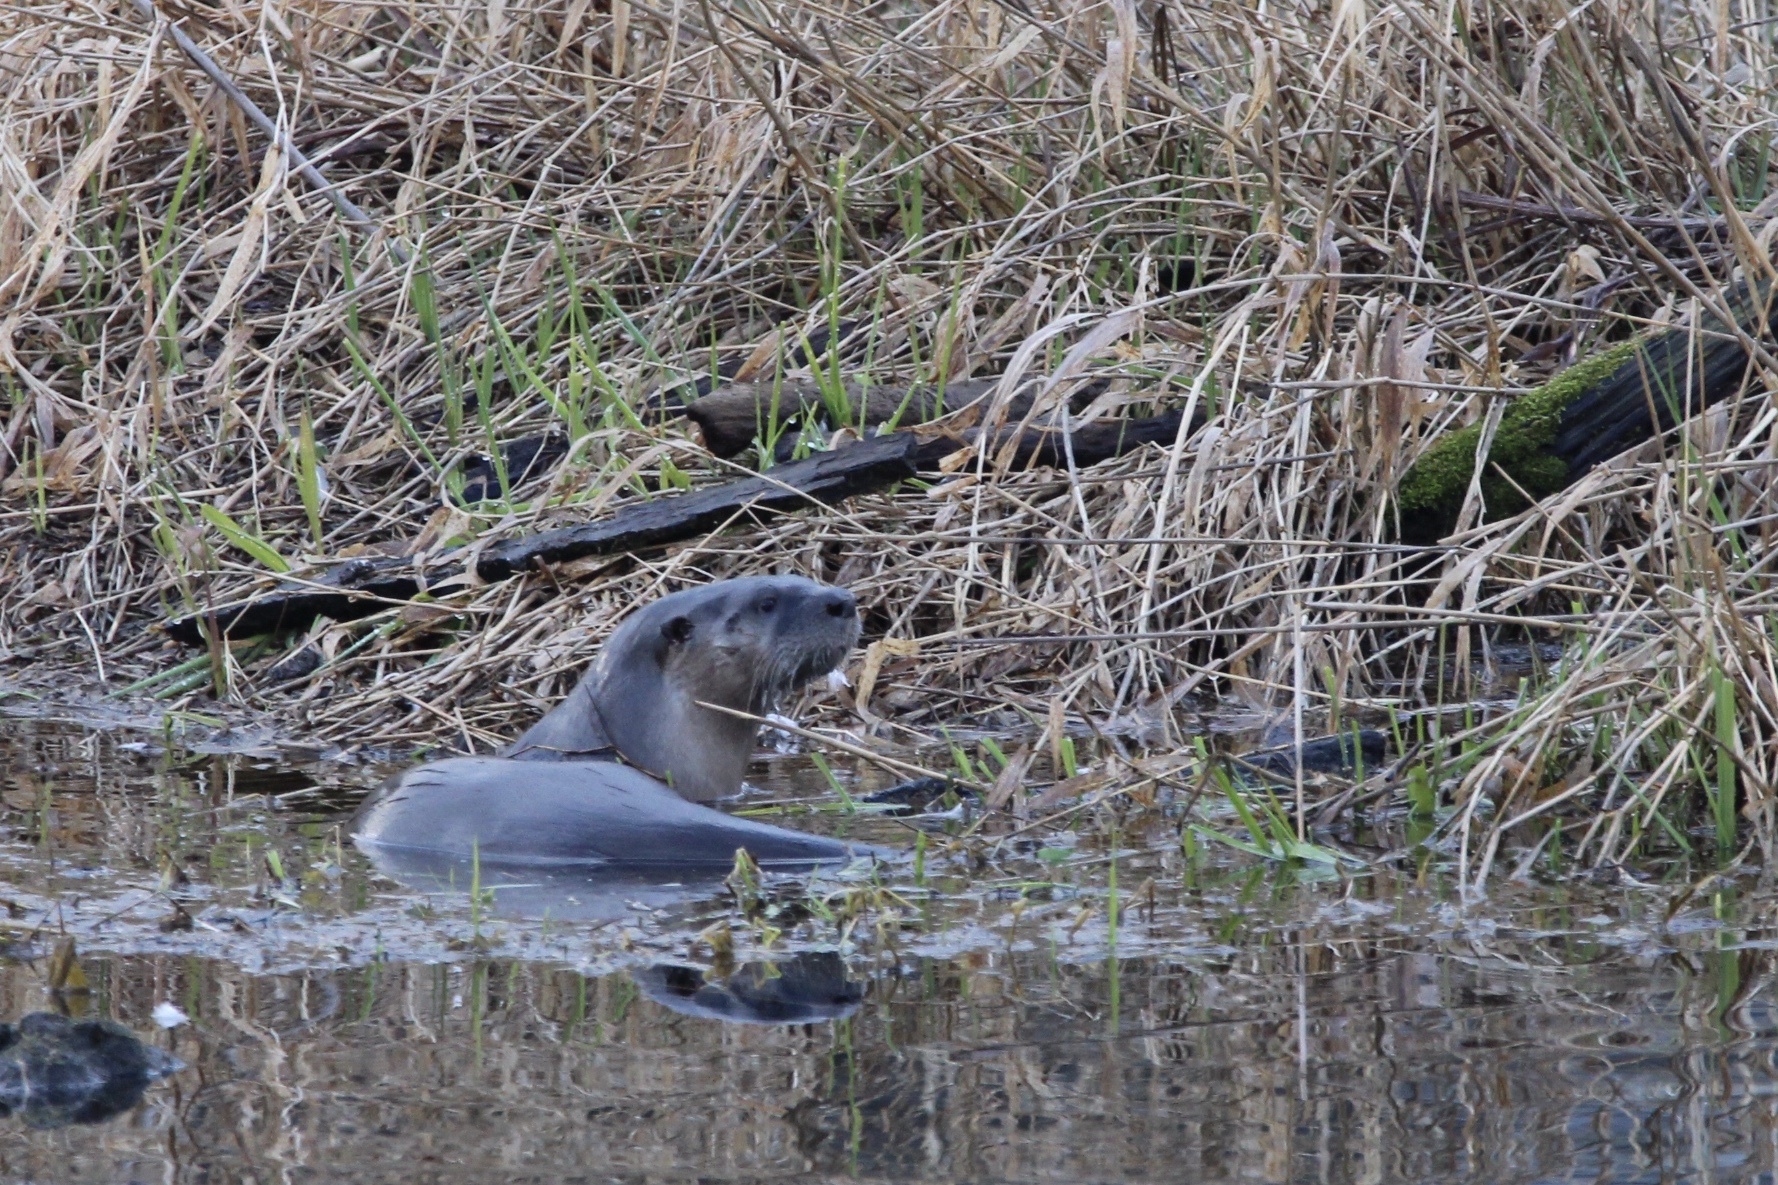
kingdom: Animalia
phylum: Chordata
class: Mammalia
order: Carnivora
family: Mustelidae
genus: Lontra
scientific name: Lontra canadensis
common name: North american river otter
